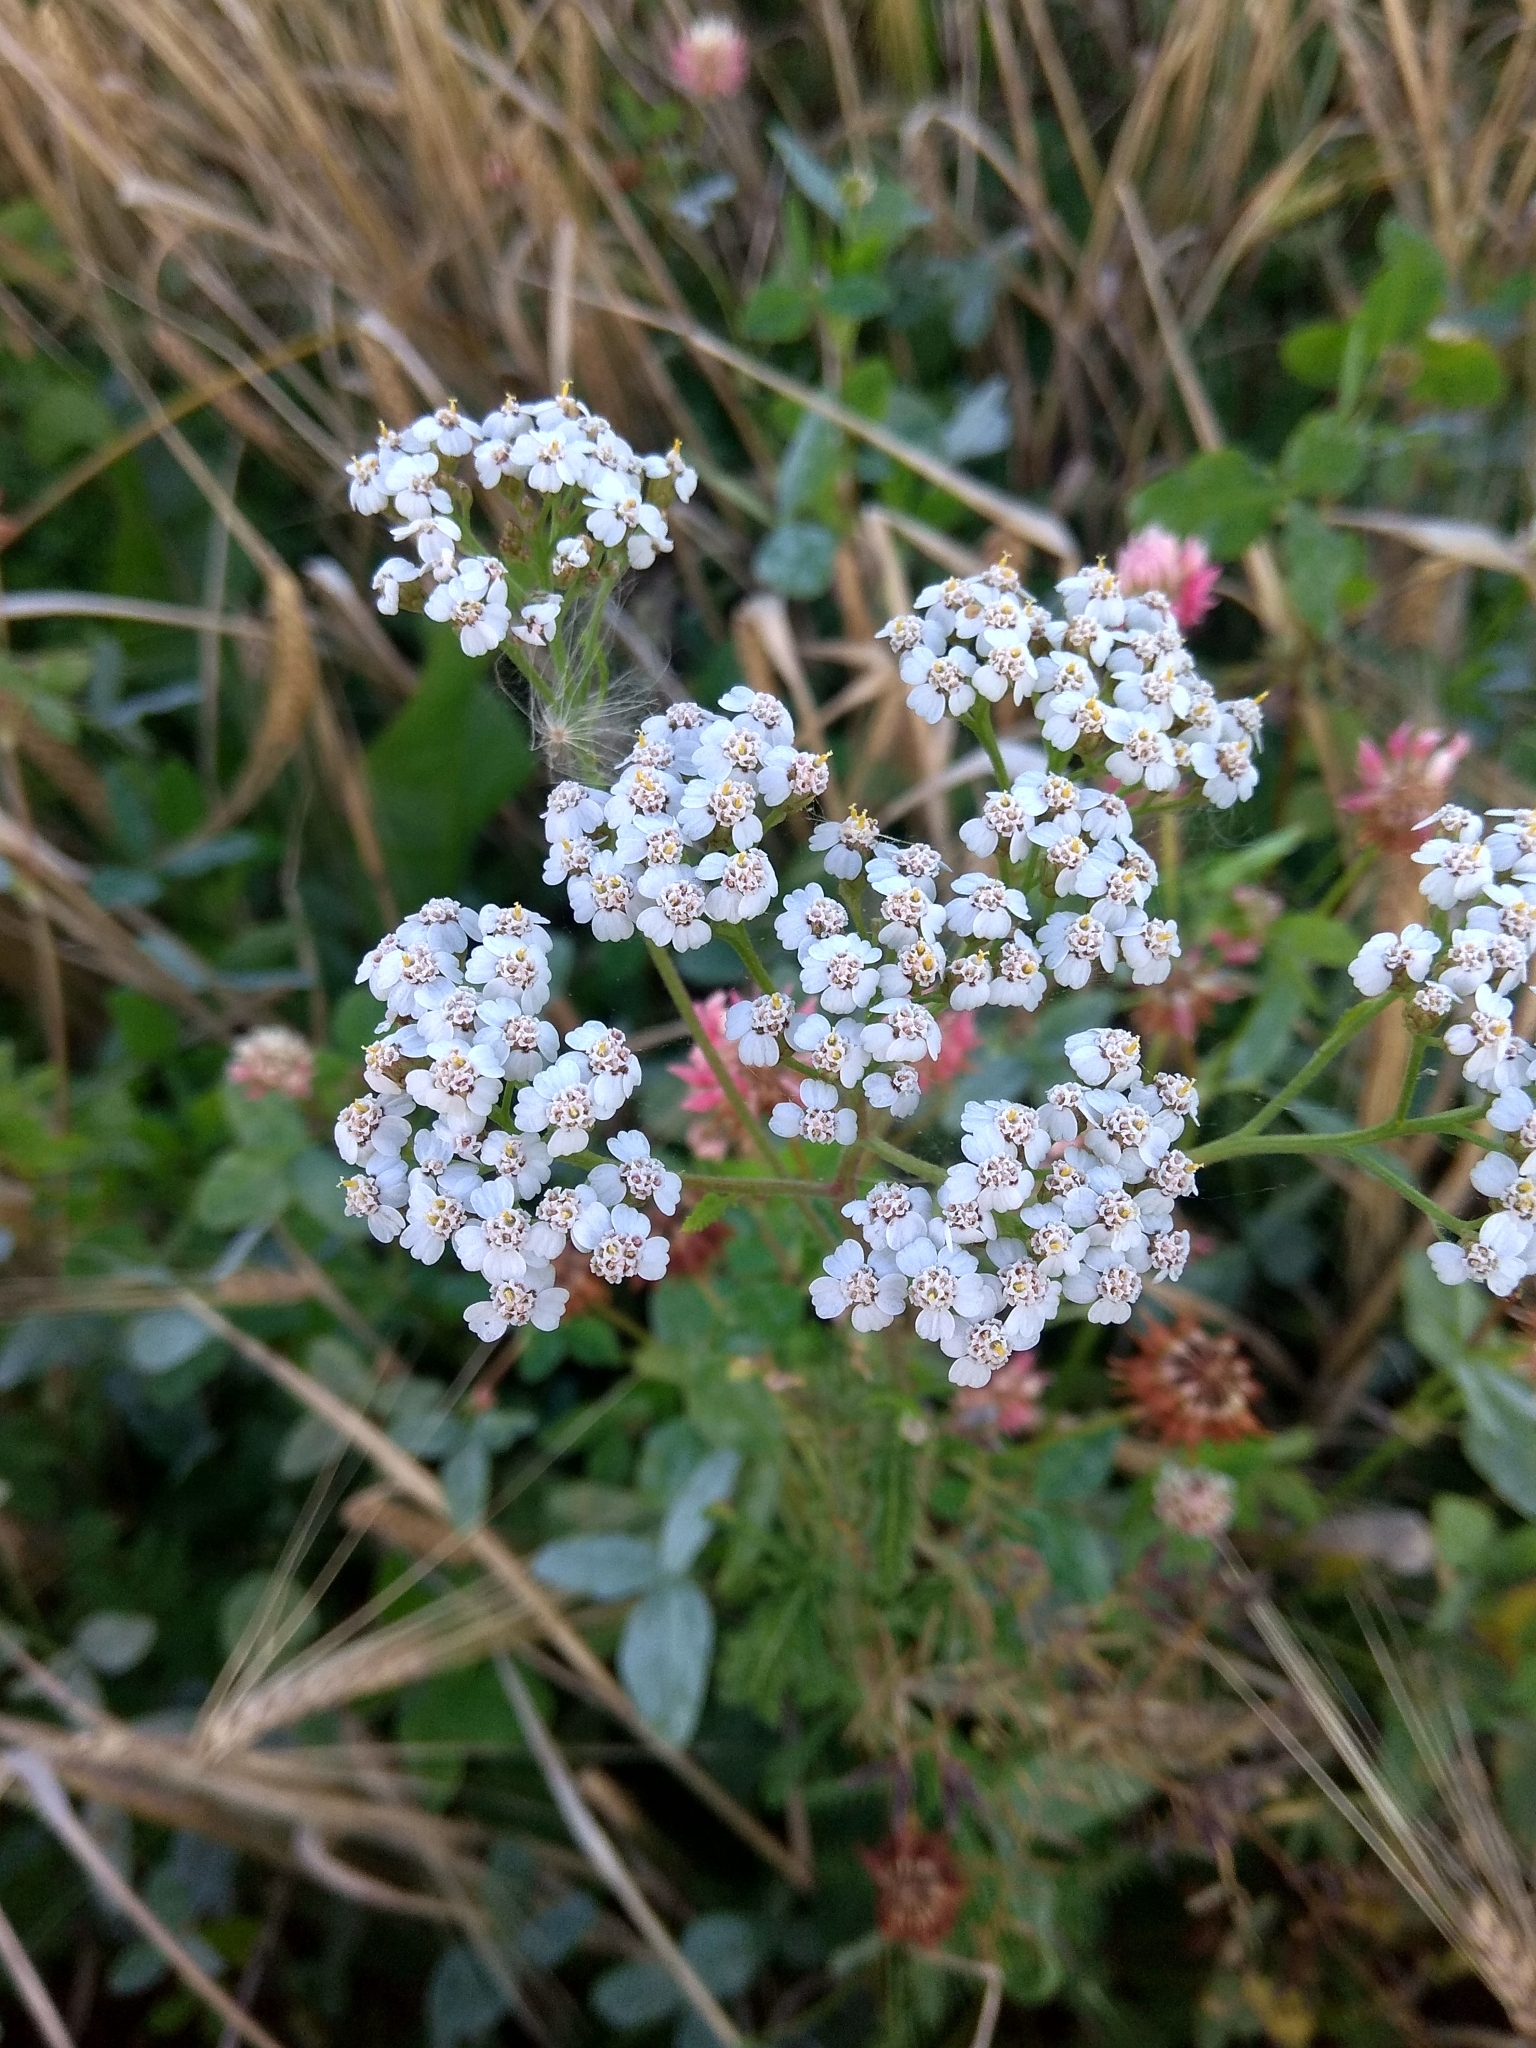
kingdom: Plantae
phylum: Tracheophyta
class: Magnoliopsida
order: Asterales
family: Asteraceae
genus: Achillea
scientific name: Achillea millefolium
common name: Yarrow
